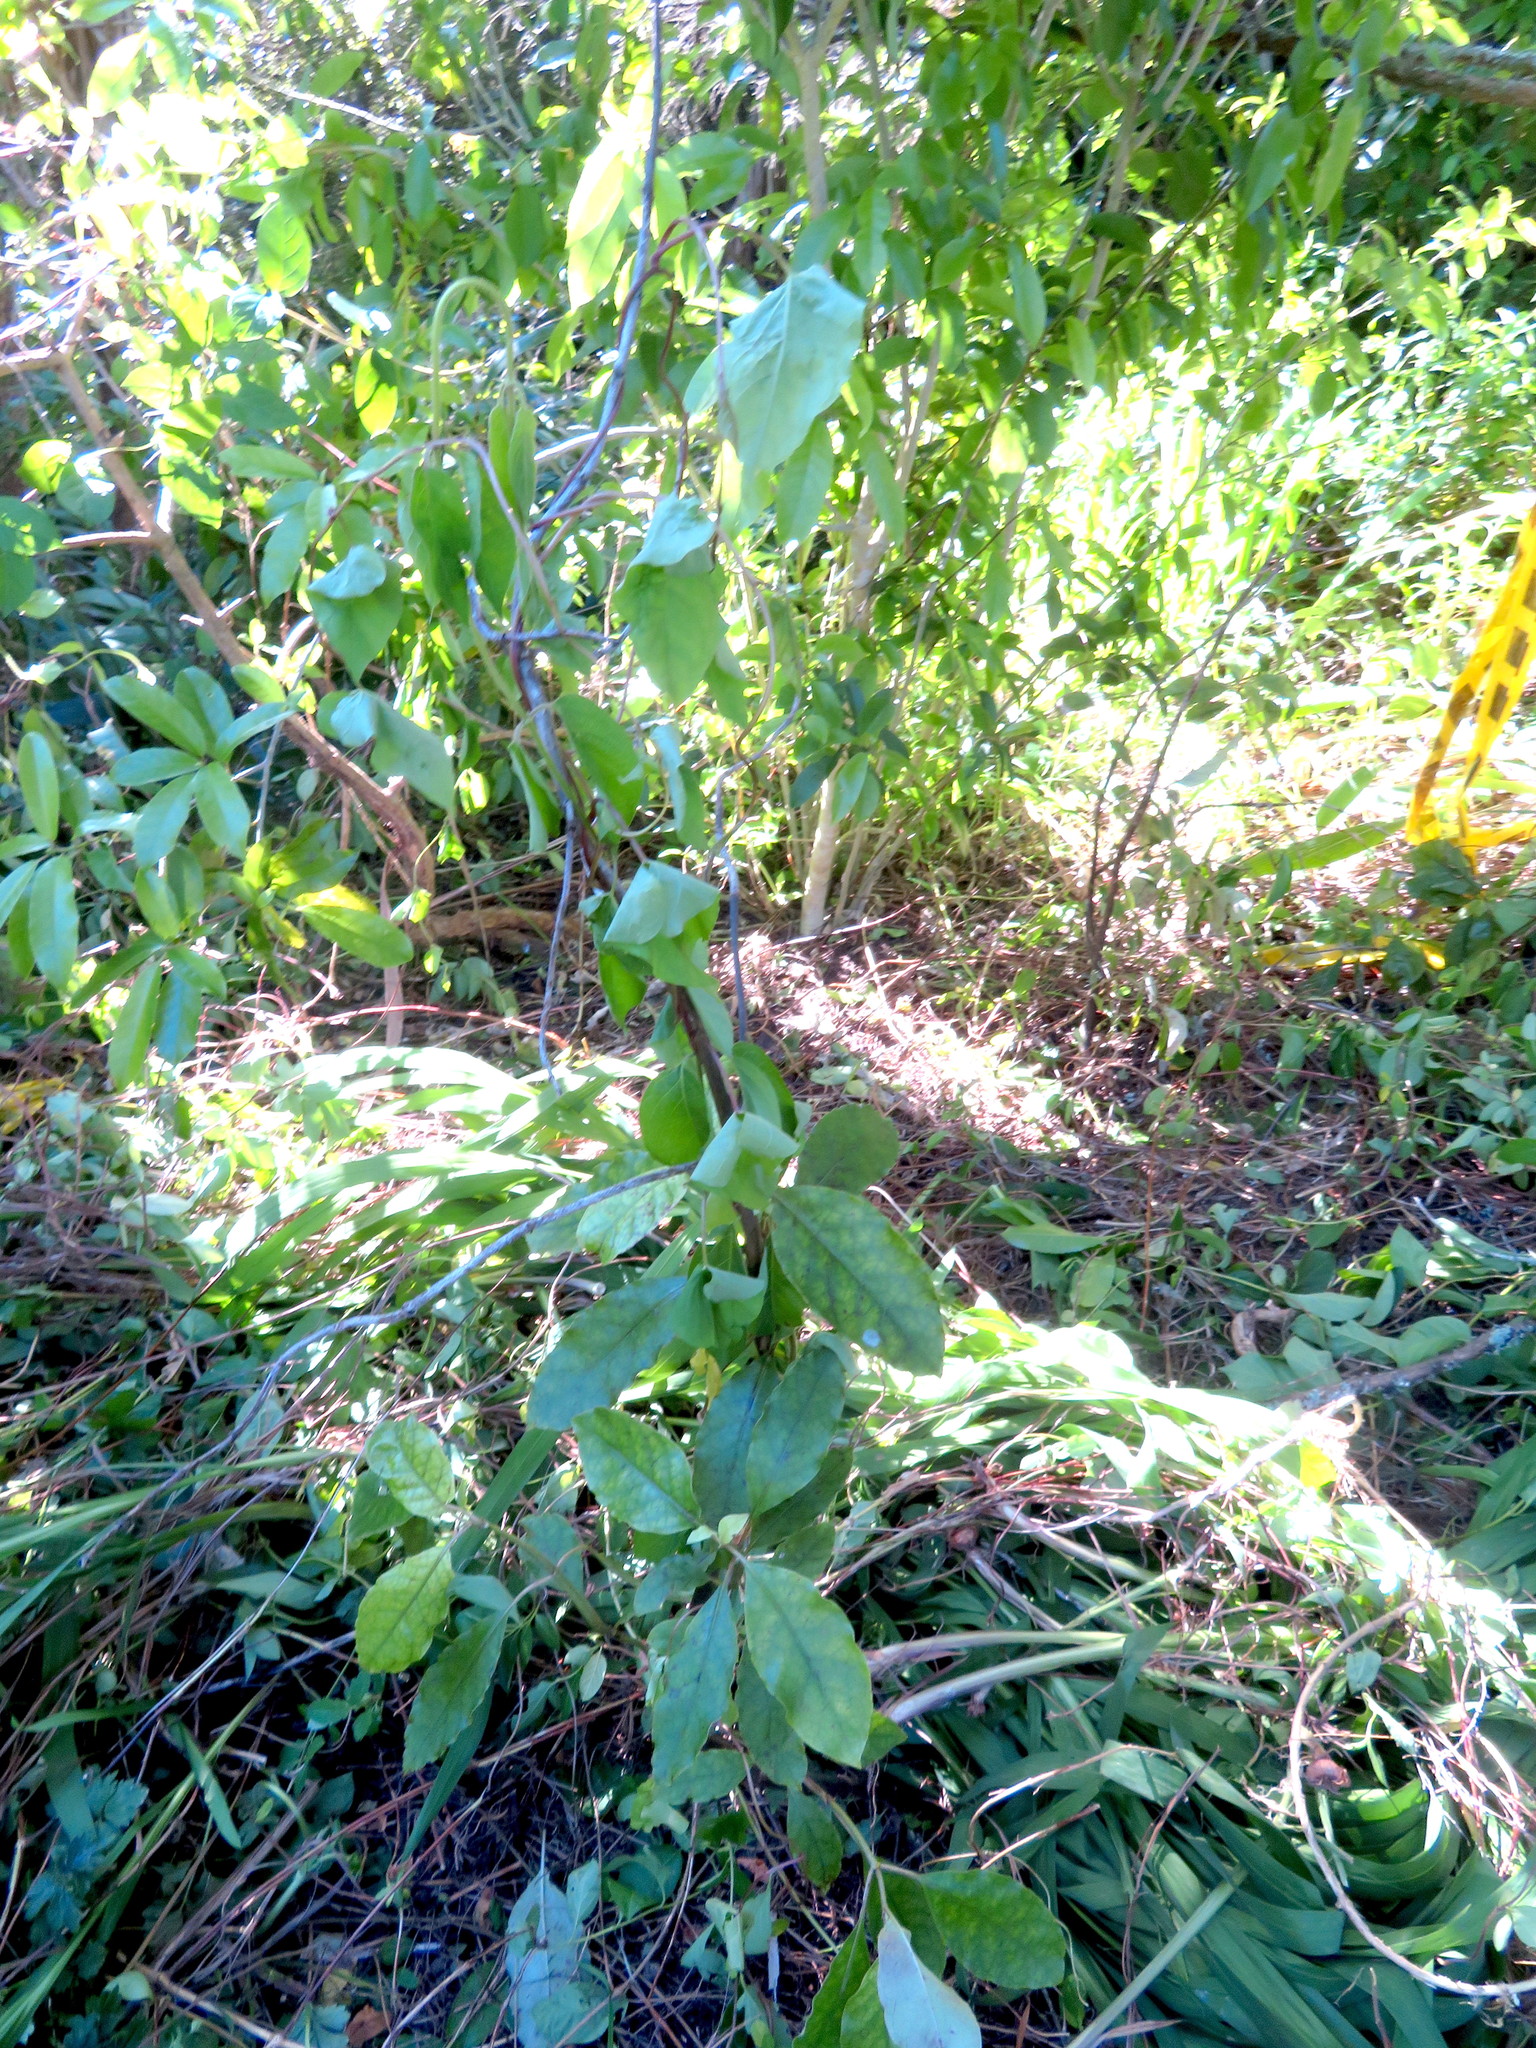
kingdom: Plantae
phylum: Tracheophyta
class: Magnoliopsida
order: Gentianales
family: Rubiaceae
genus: Coprosma
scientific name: Coprosma autumnalis
